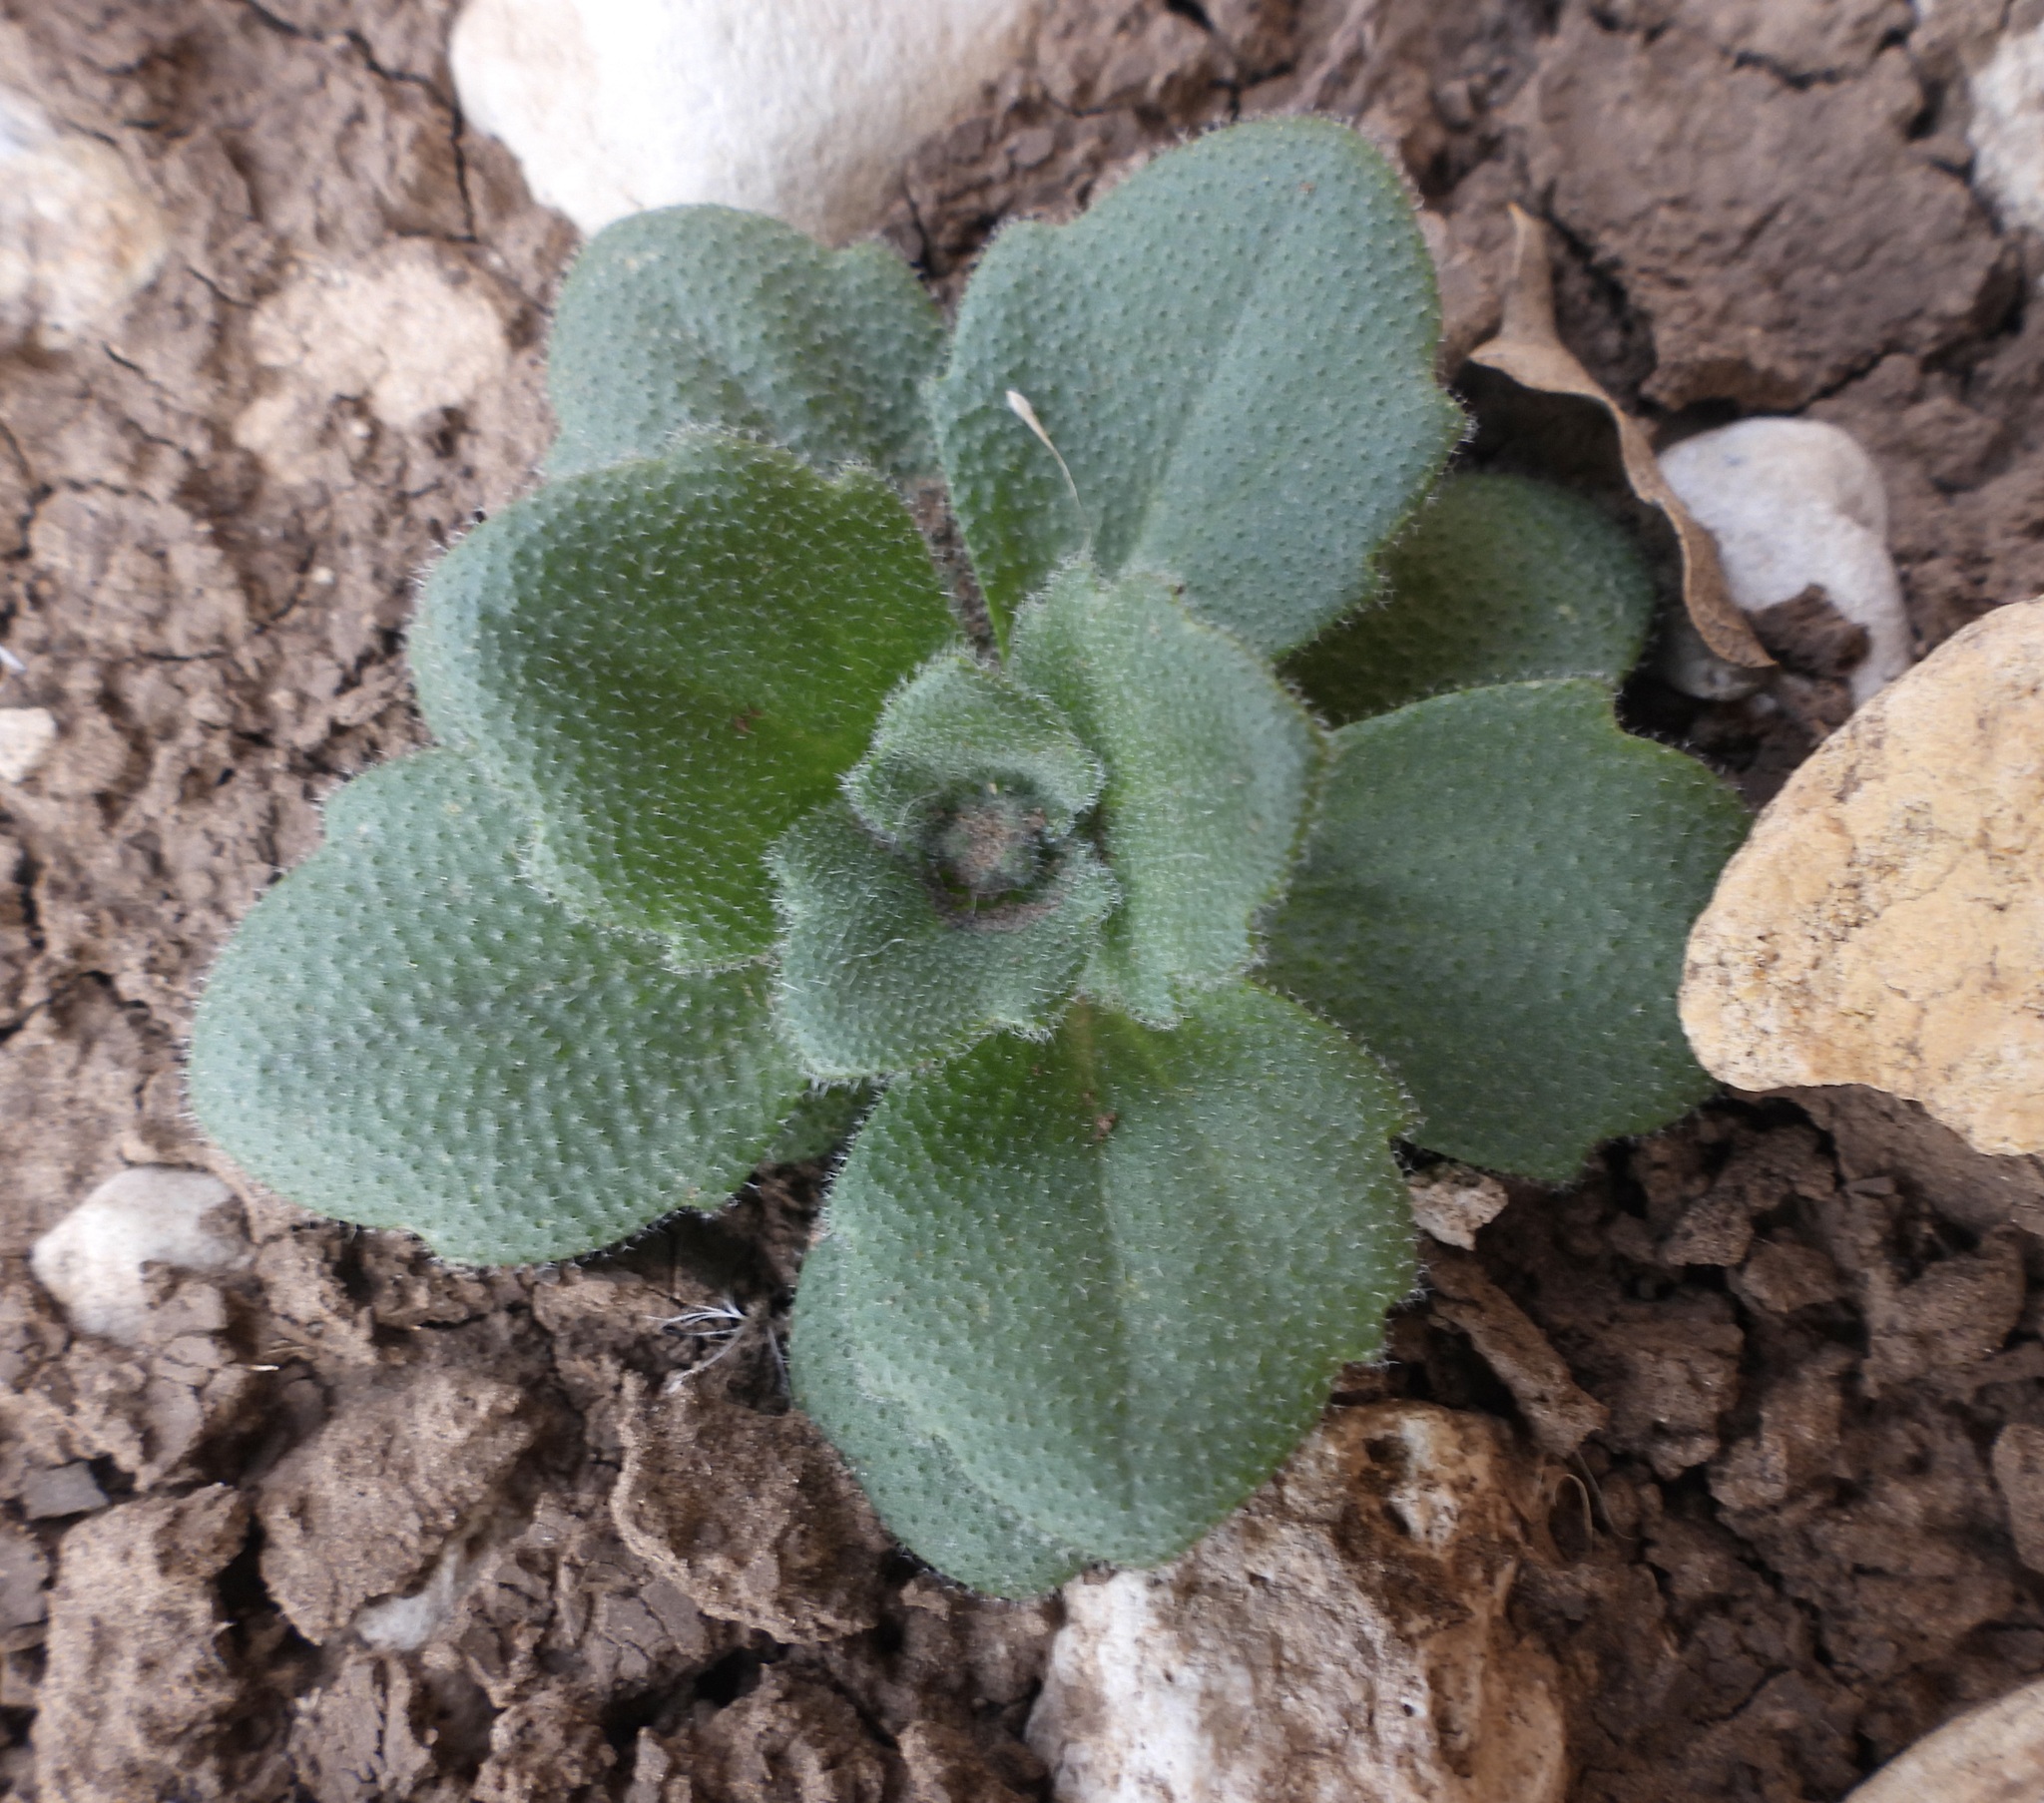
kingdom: Plantae
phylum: Tracheophyta
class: Magnoliopsida
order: Brassicales
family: Brassicaceae
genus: Tomostima
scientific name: Tomostima cuneifolia
